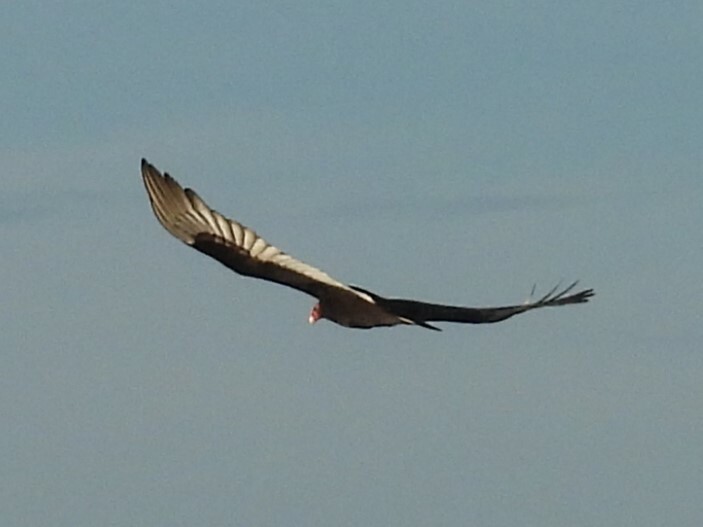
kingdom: Animalia
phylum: Chordata
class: Aves
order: Accipitriformes
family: Cathartidae
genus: Cathartes
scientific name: Cathartes aura
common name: Turkey vulture
